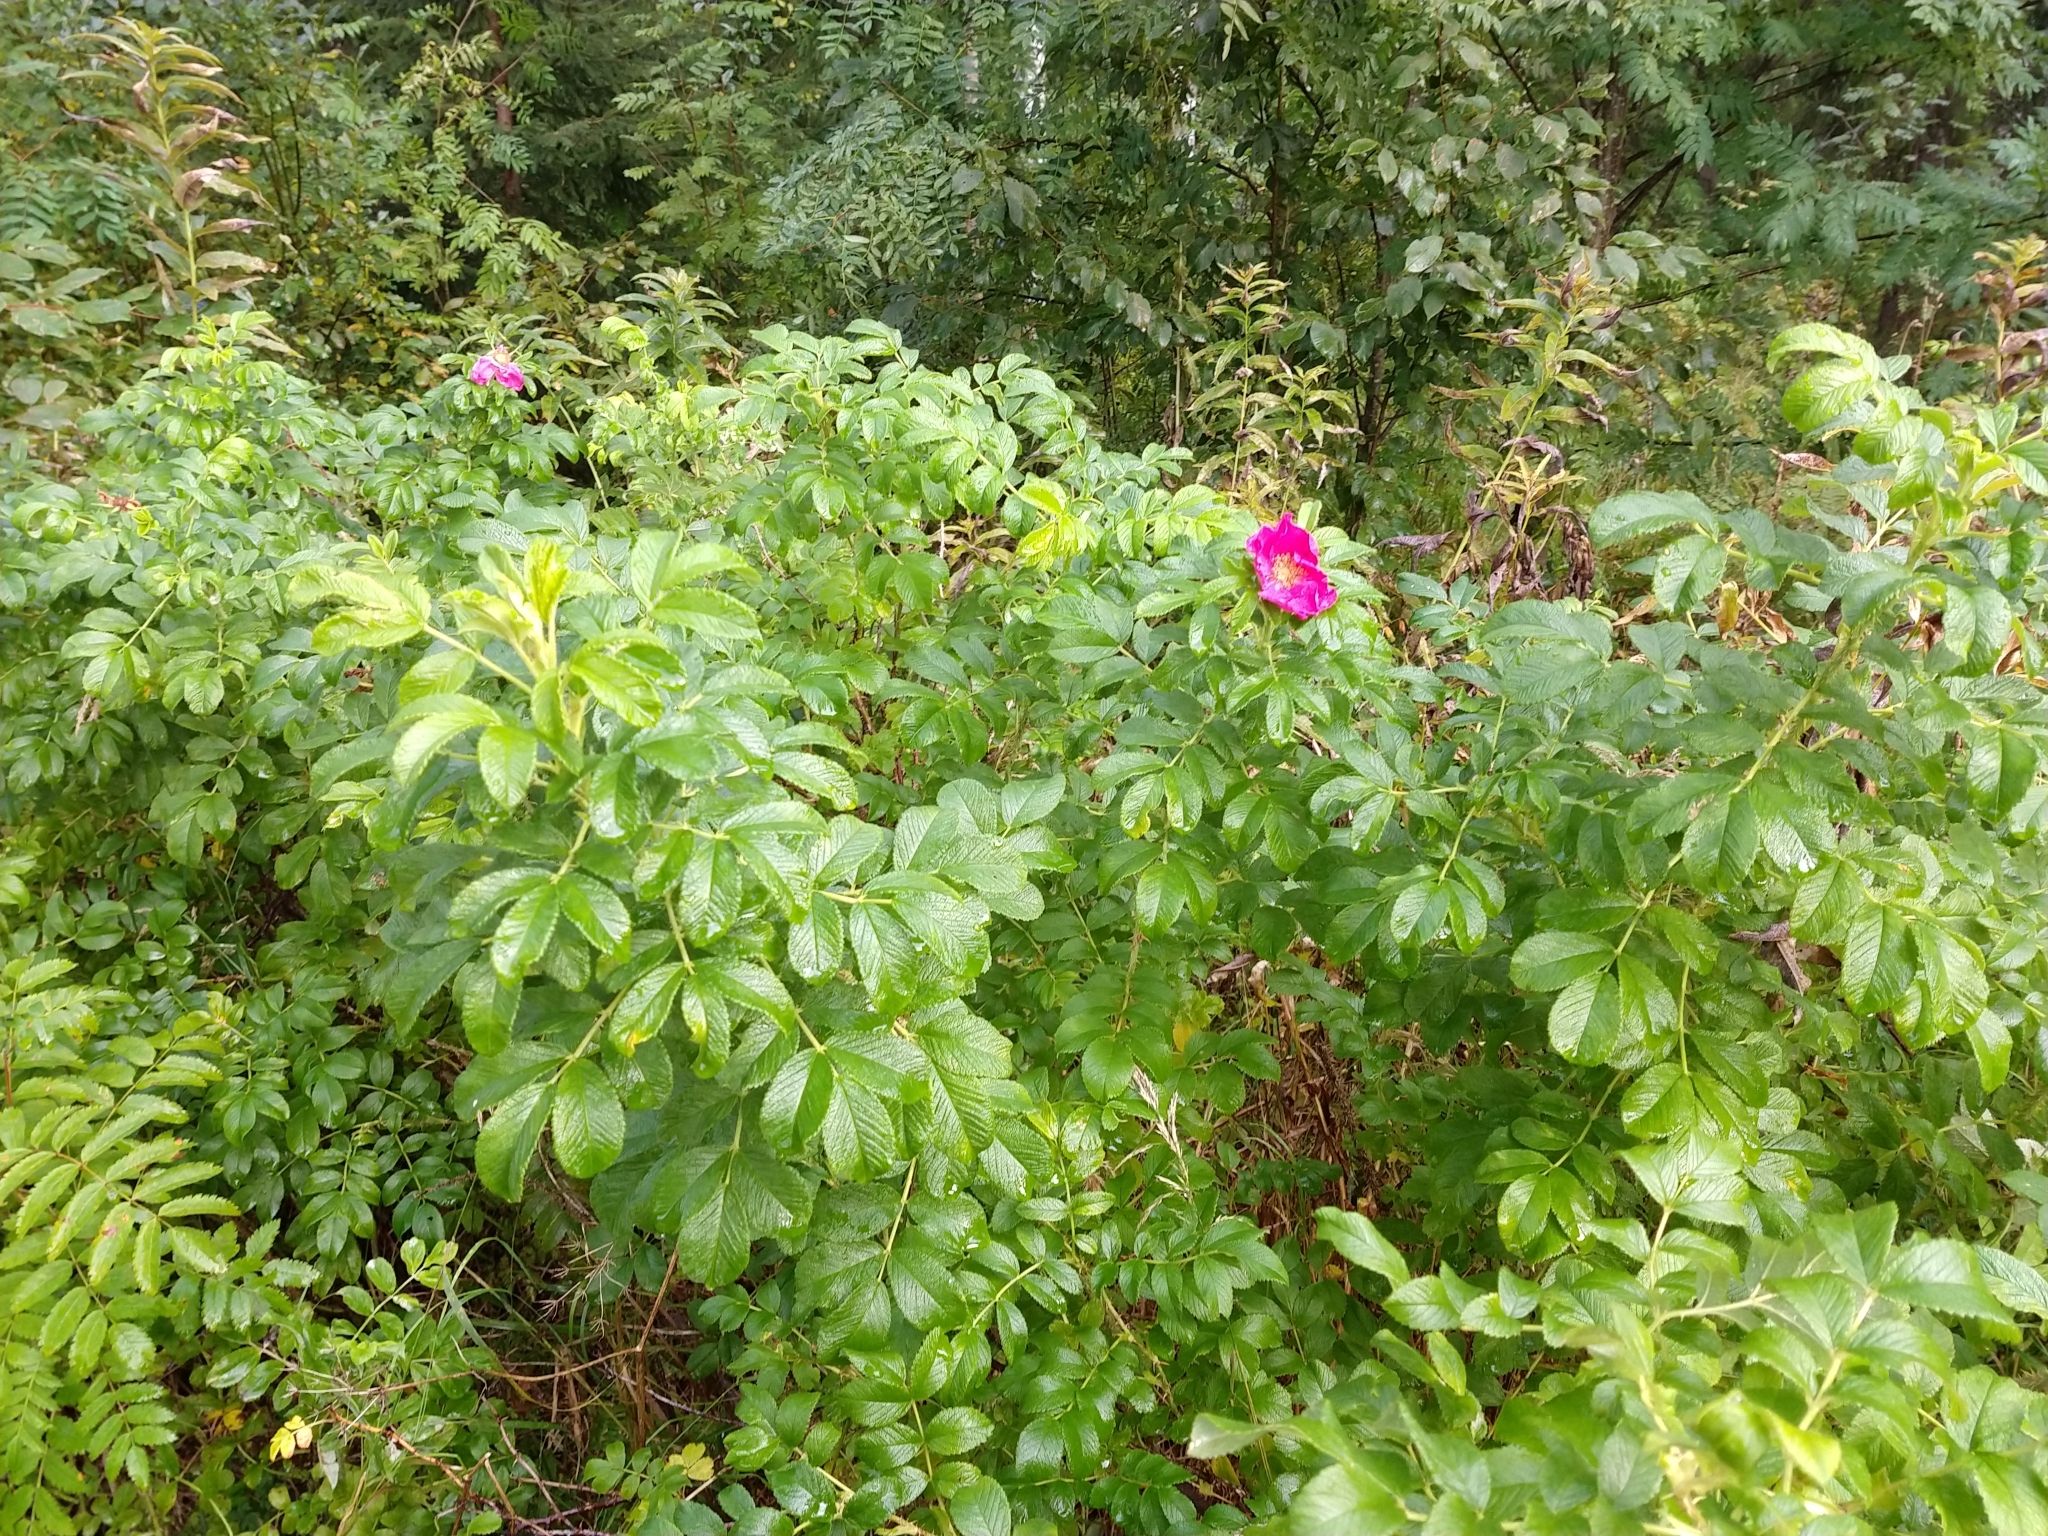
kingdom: Plantae
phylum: Tracheophyta
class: Magnoliopsida
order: Rosales
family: Rosaceae
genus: Rosa
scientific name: Rosa rugosa
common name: Japanese rose
